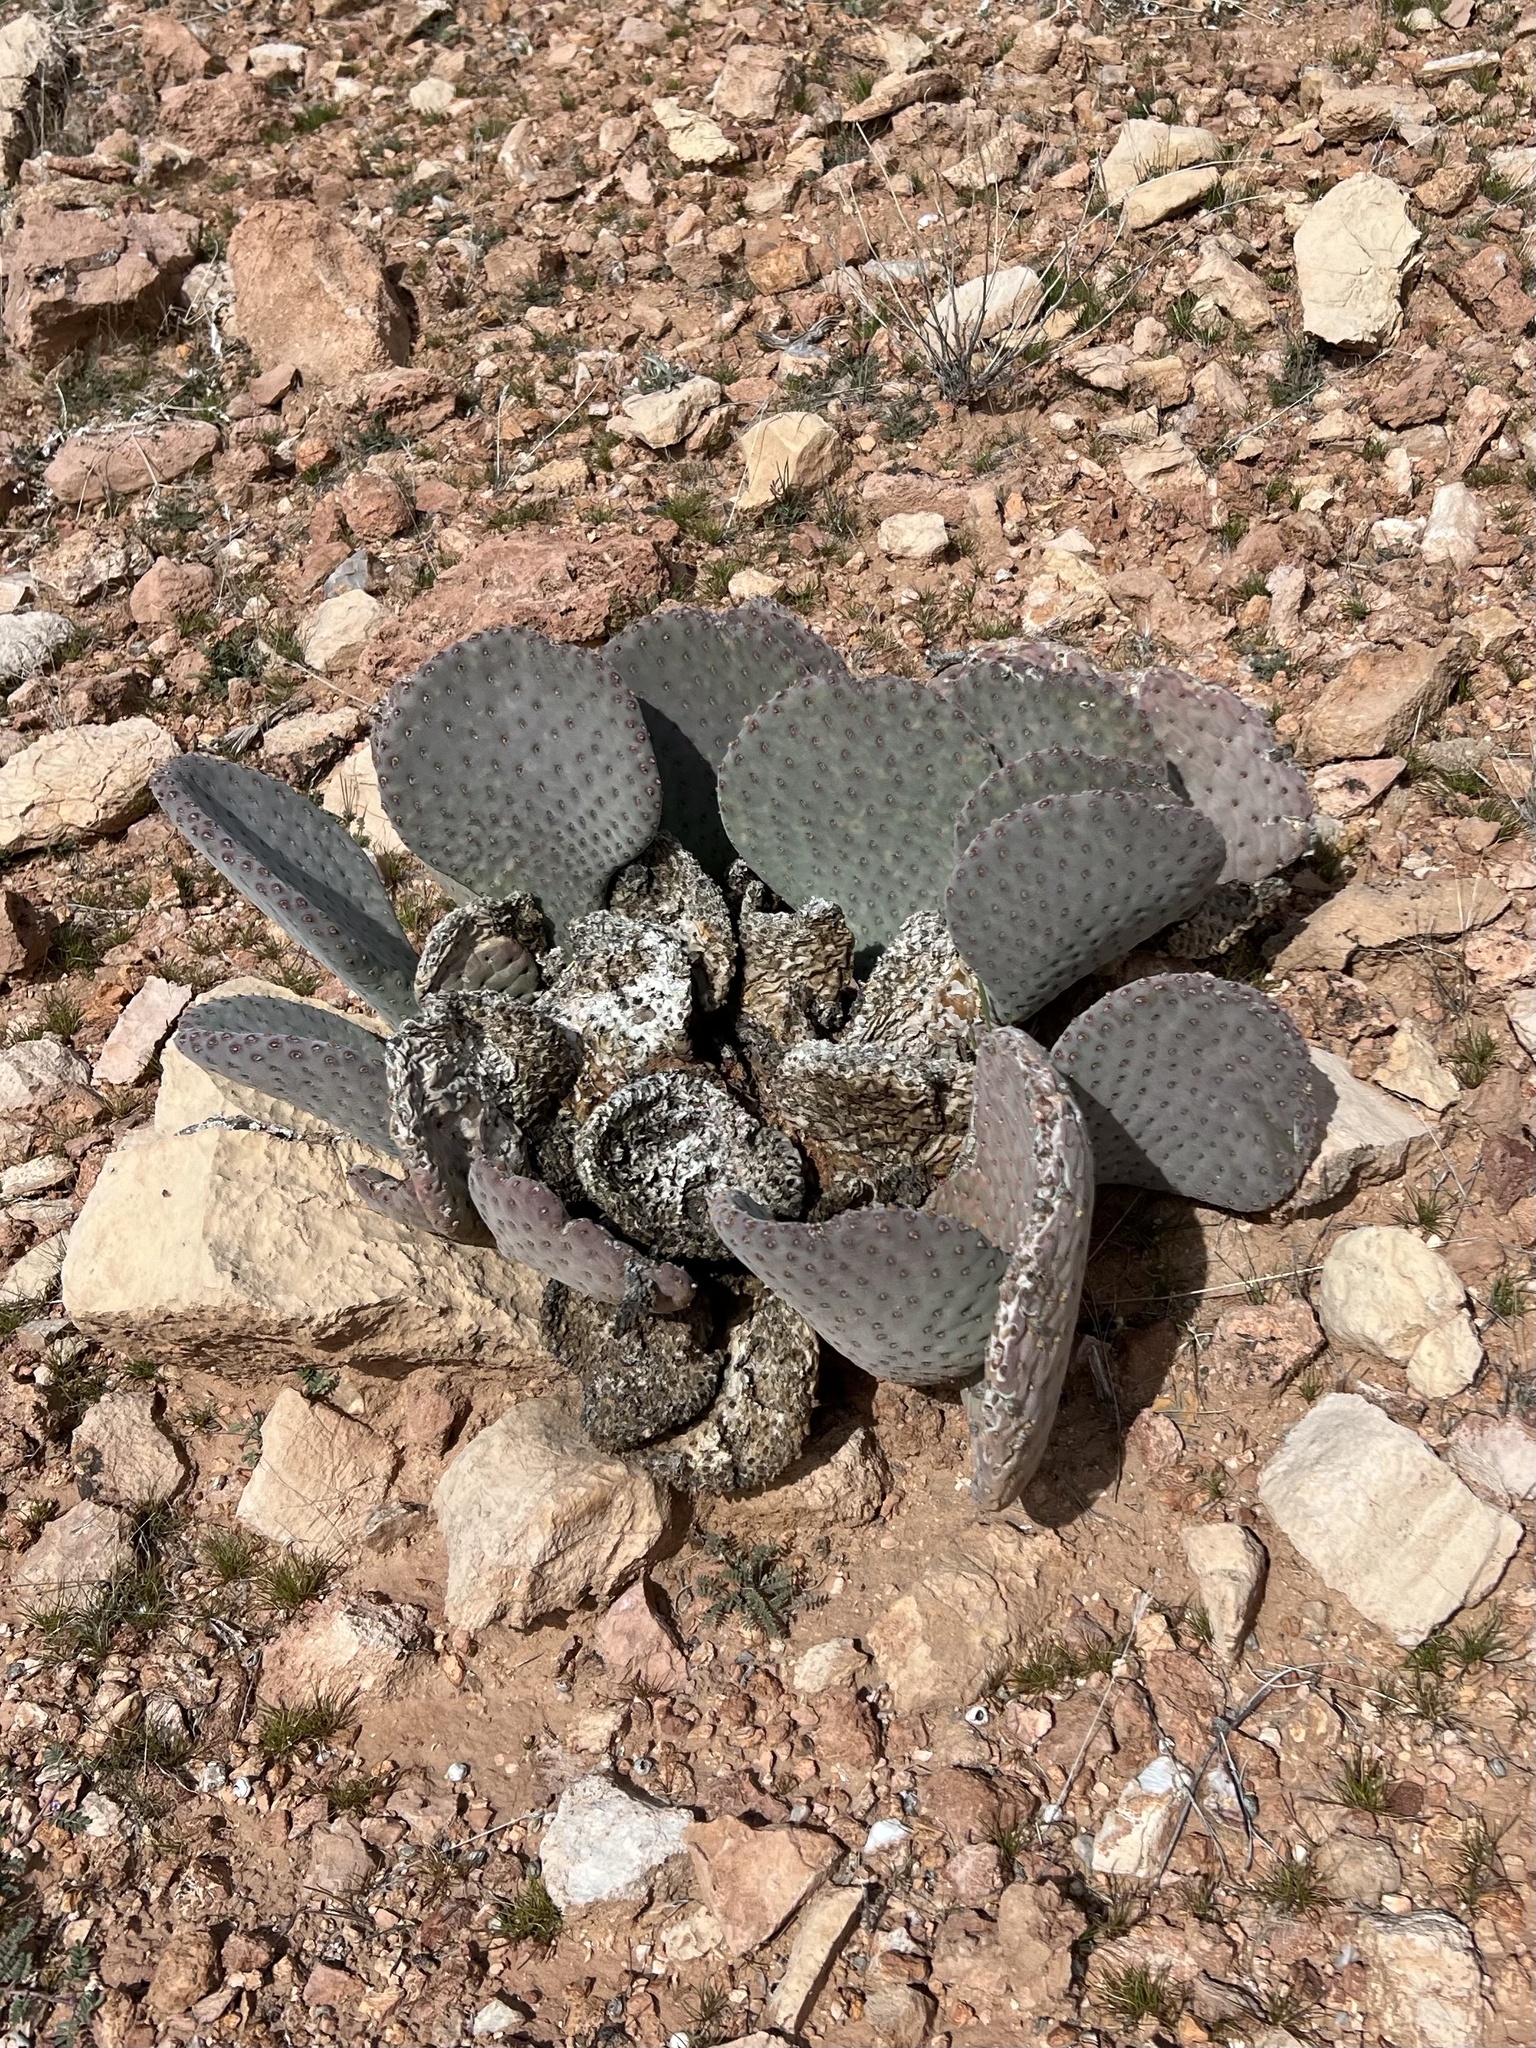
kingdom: Plantae
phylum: Tracheophyta
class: Magnoliopsida
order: Caryophyllales
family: Cactaceae
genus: Opuntia
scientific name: Opuntia basilaris
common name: Beavertail prickly-pear
